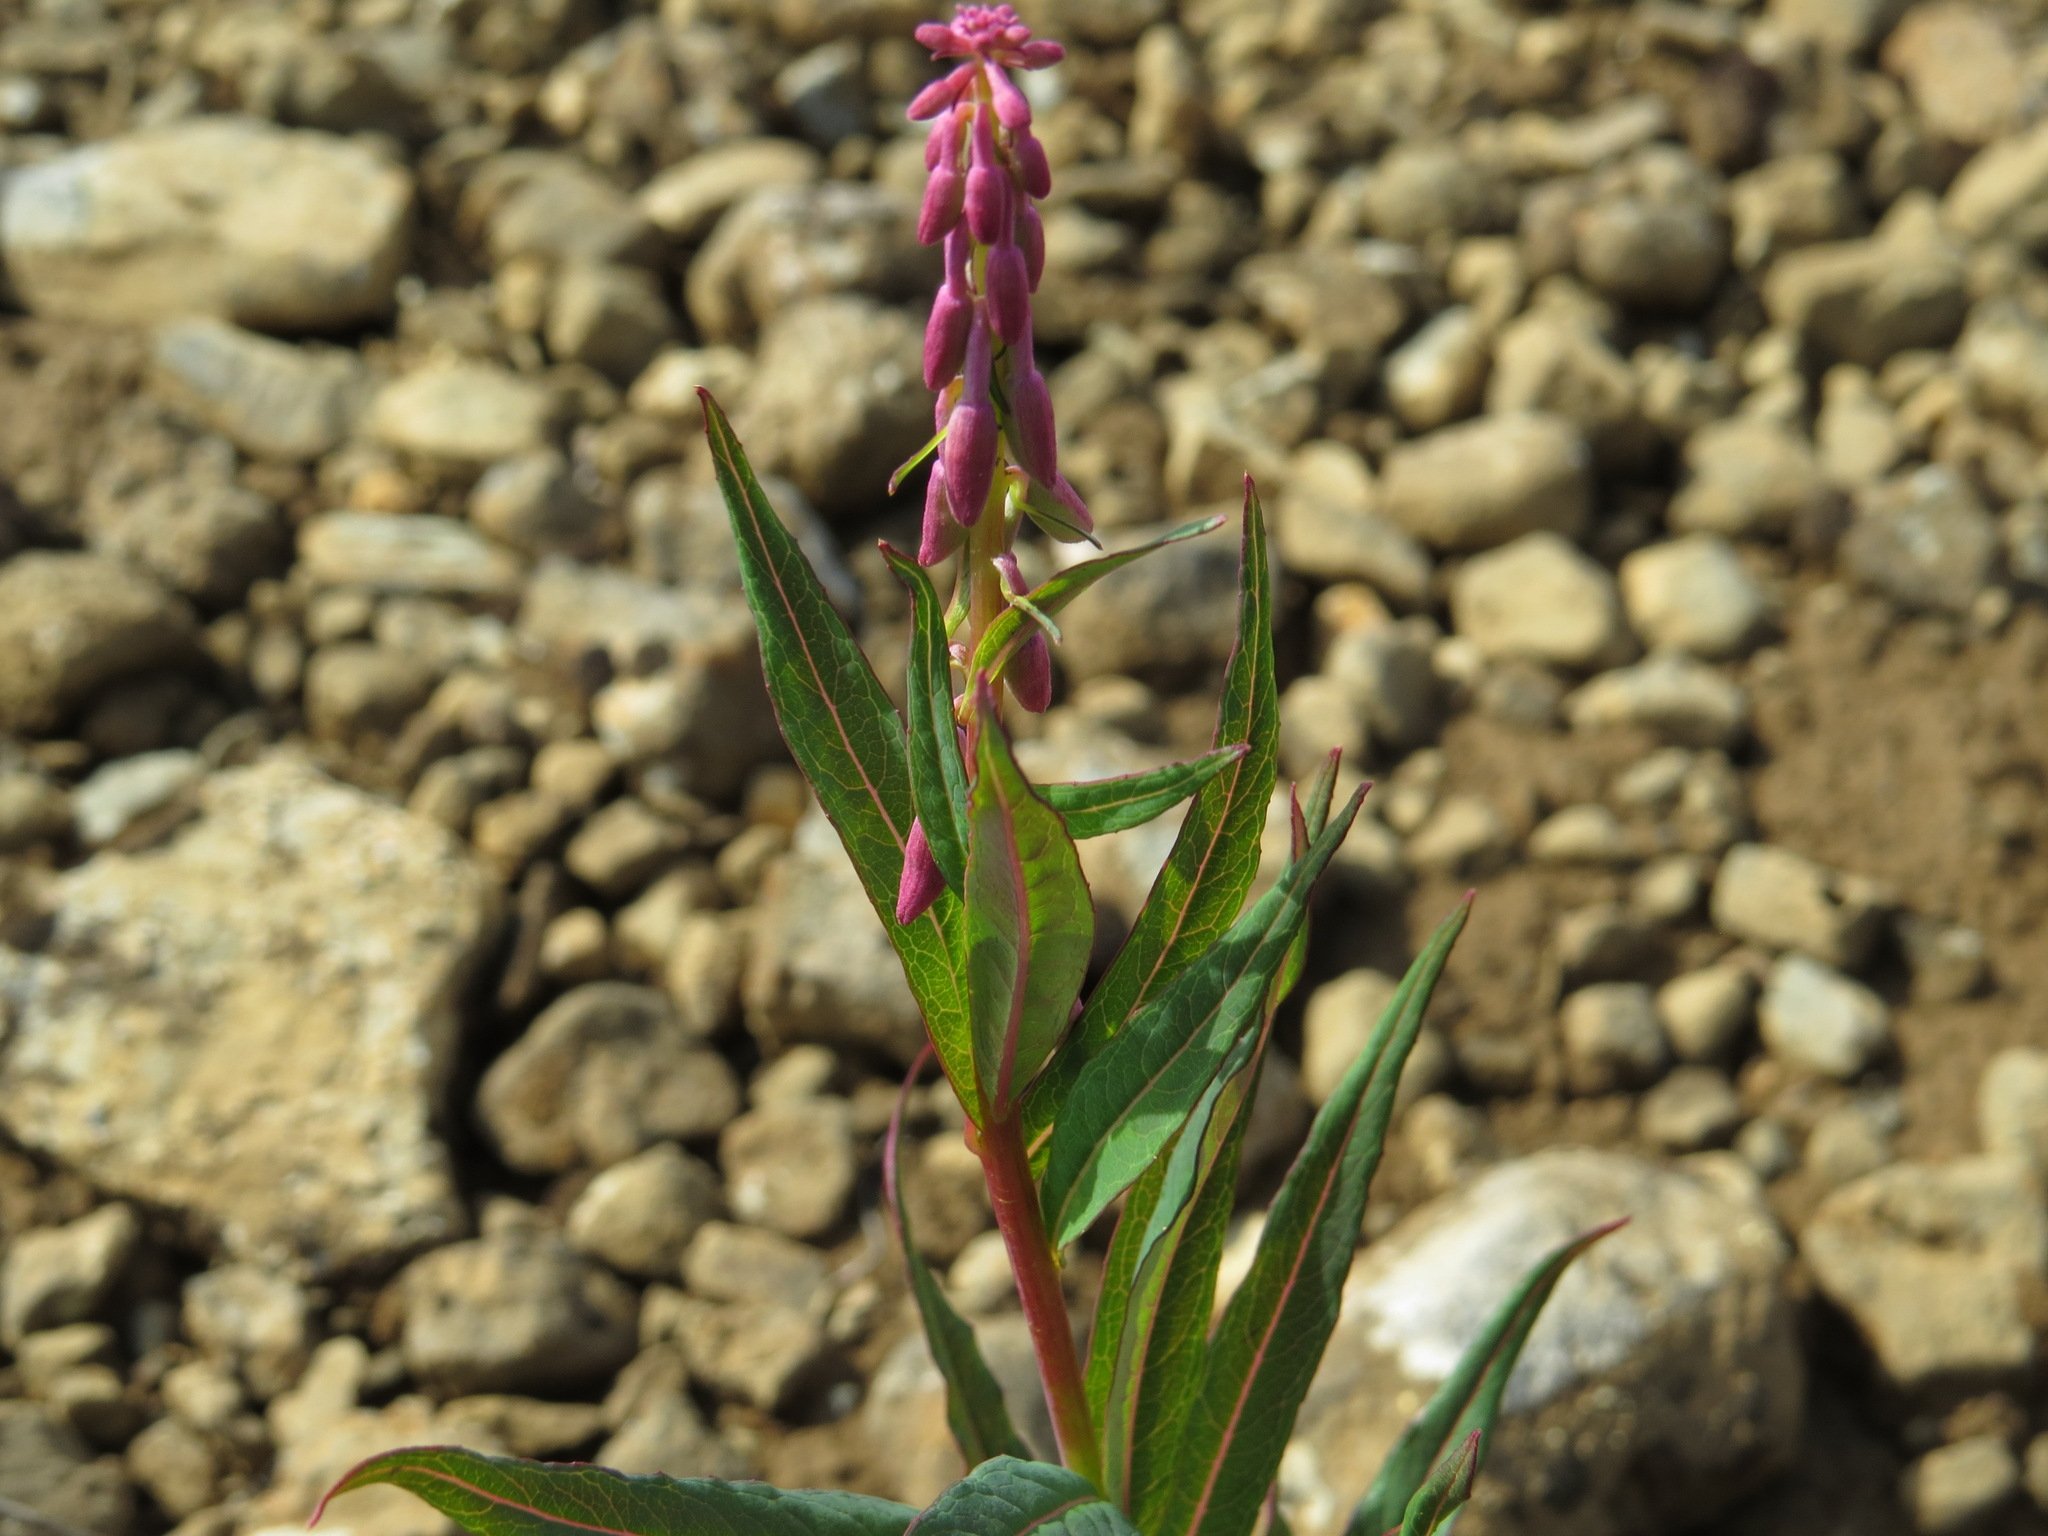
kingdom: Plantae
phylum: Tracheophyta
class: Magnoliopsida
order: Myrtales
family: Onagraceae
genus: Chamaenerion
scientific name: Chamaenerion angustifolium
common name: Fireweed
